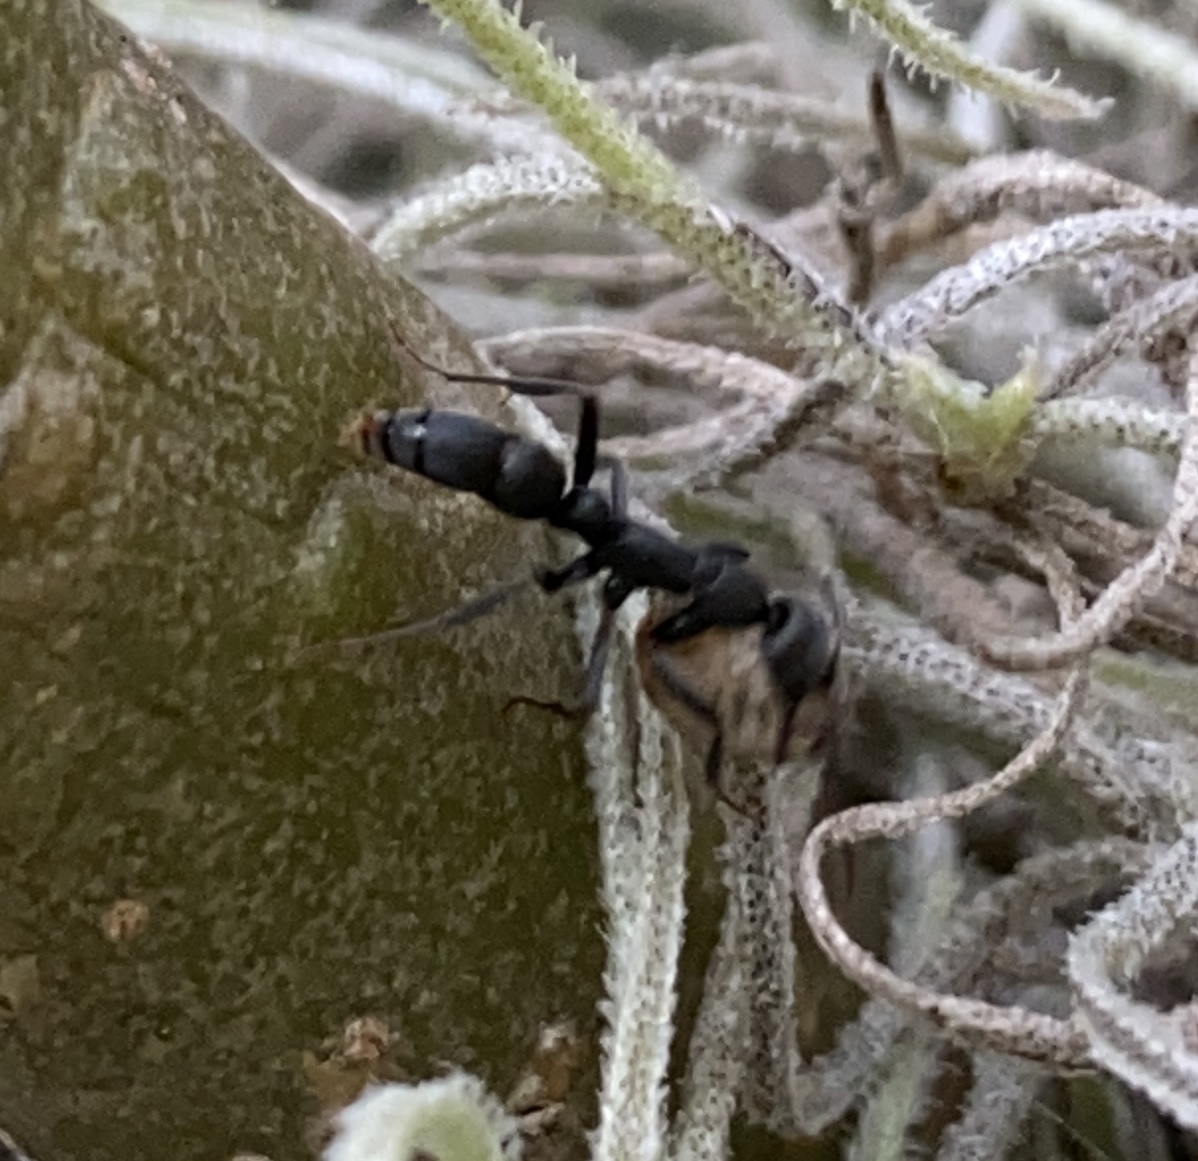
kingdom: Animalia
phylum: Arthropoda
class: Insecta
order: Hymenoptera
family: Formicidae
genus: Leptogenys
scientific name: Leptogenys falcigera
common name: Ant
